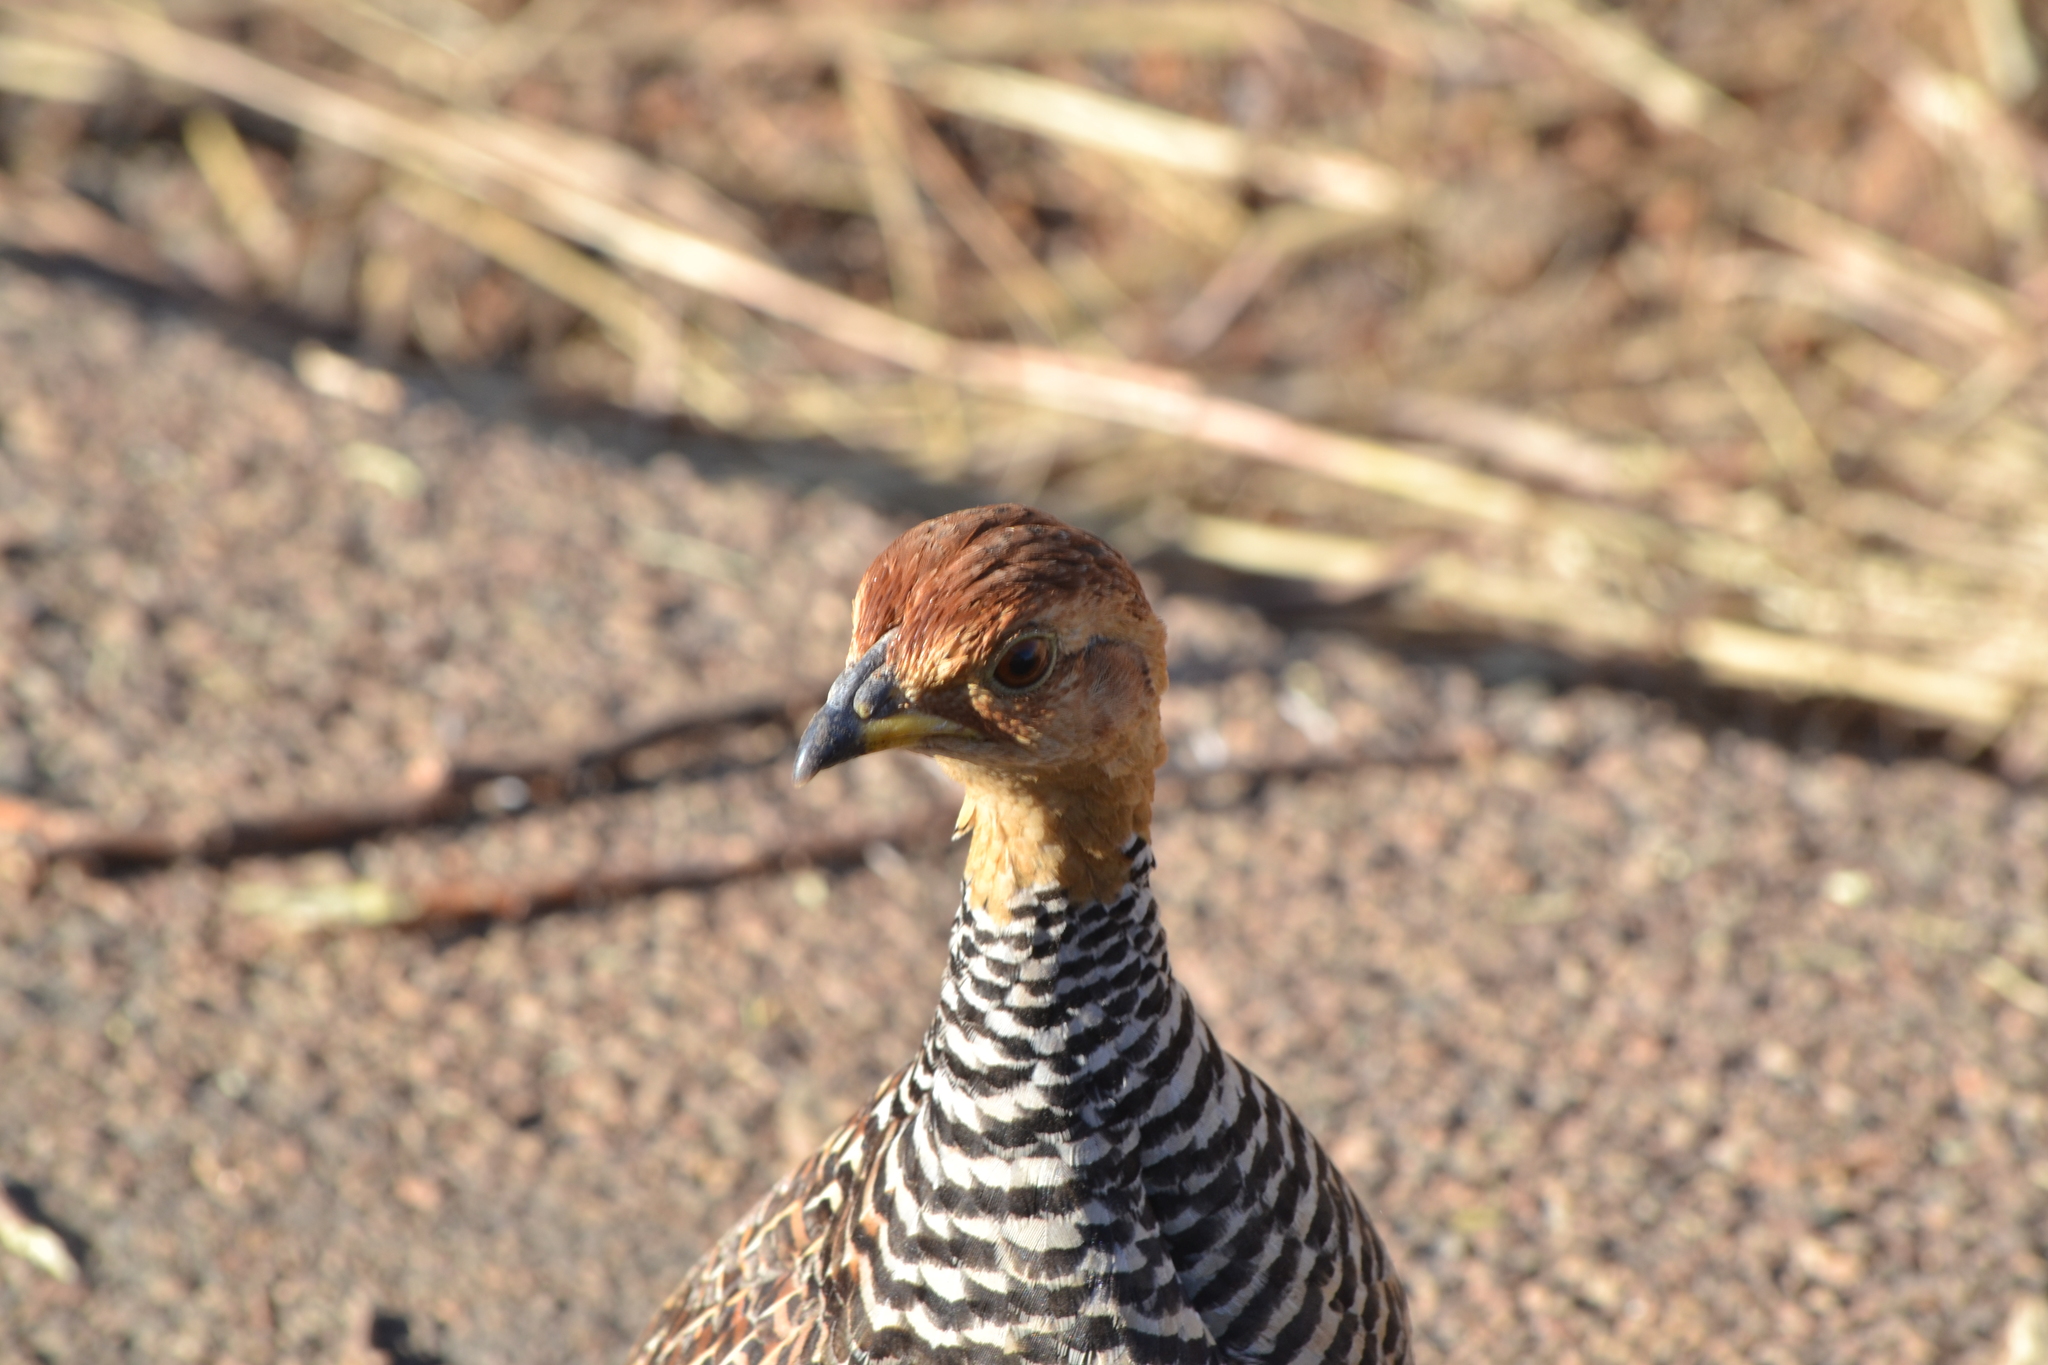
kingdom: Animalia
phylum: Chordata
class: Aves
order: Galliformes
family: Phasianidae
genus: Campocolinus
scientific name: Campocolinus coqui
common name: Coqui francolin
